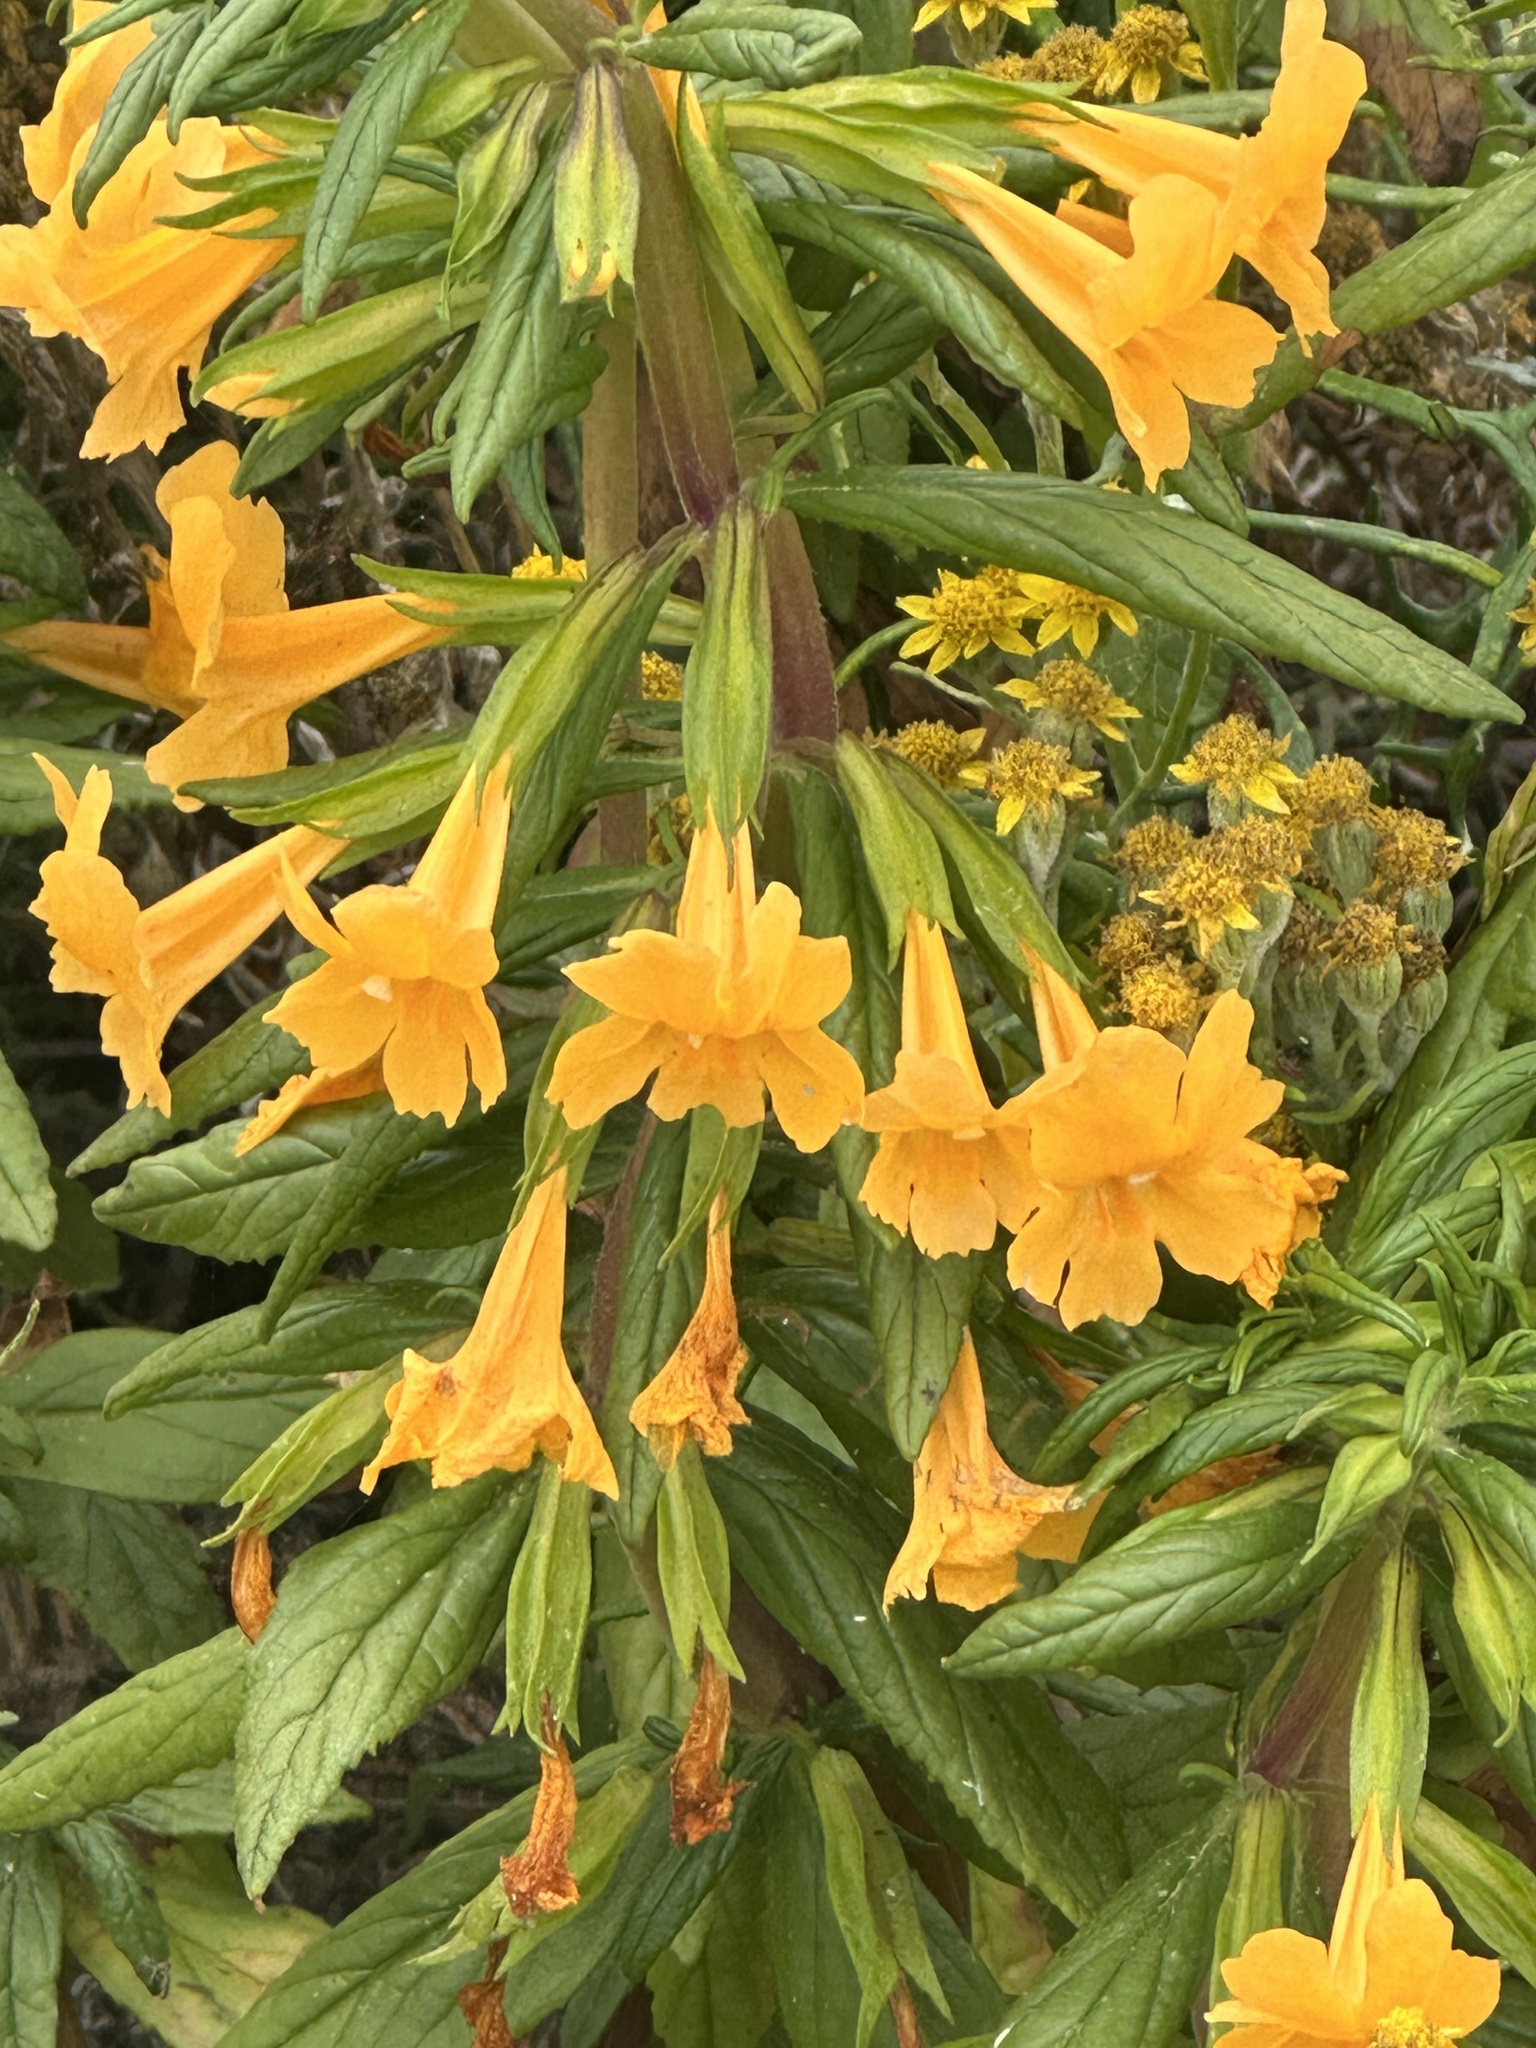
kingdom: Plantae
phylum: Tracheophyta
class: Magnoliopsida
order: Lamiales
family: Phrymaceae
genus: Diplacus
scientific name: Diplacus aurantiacus
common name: Bush monkey-flower
